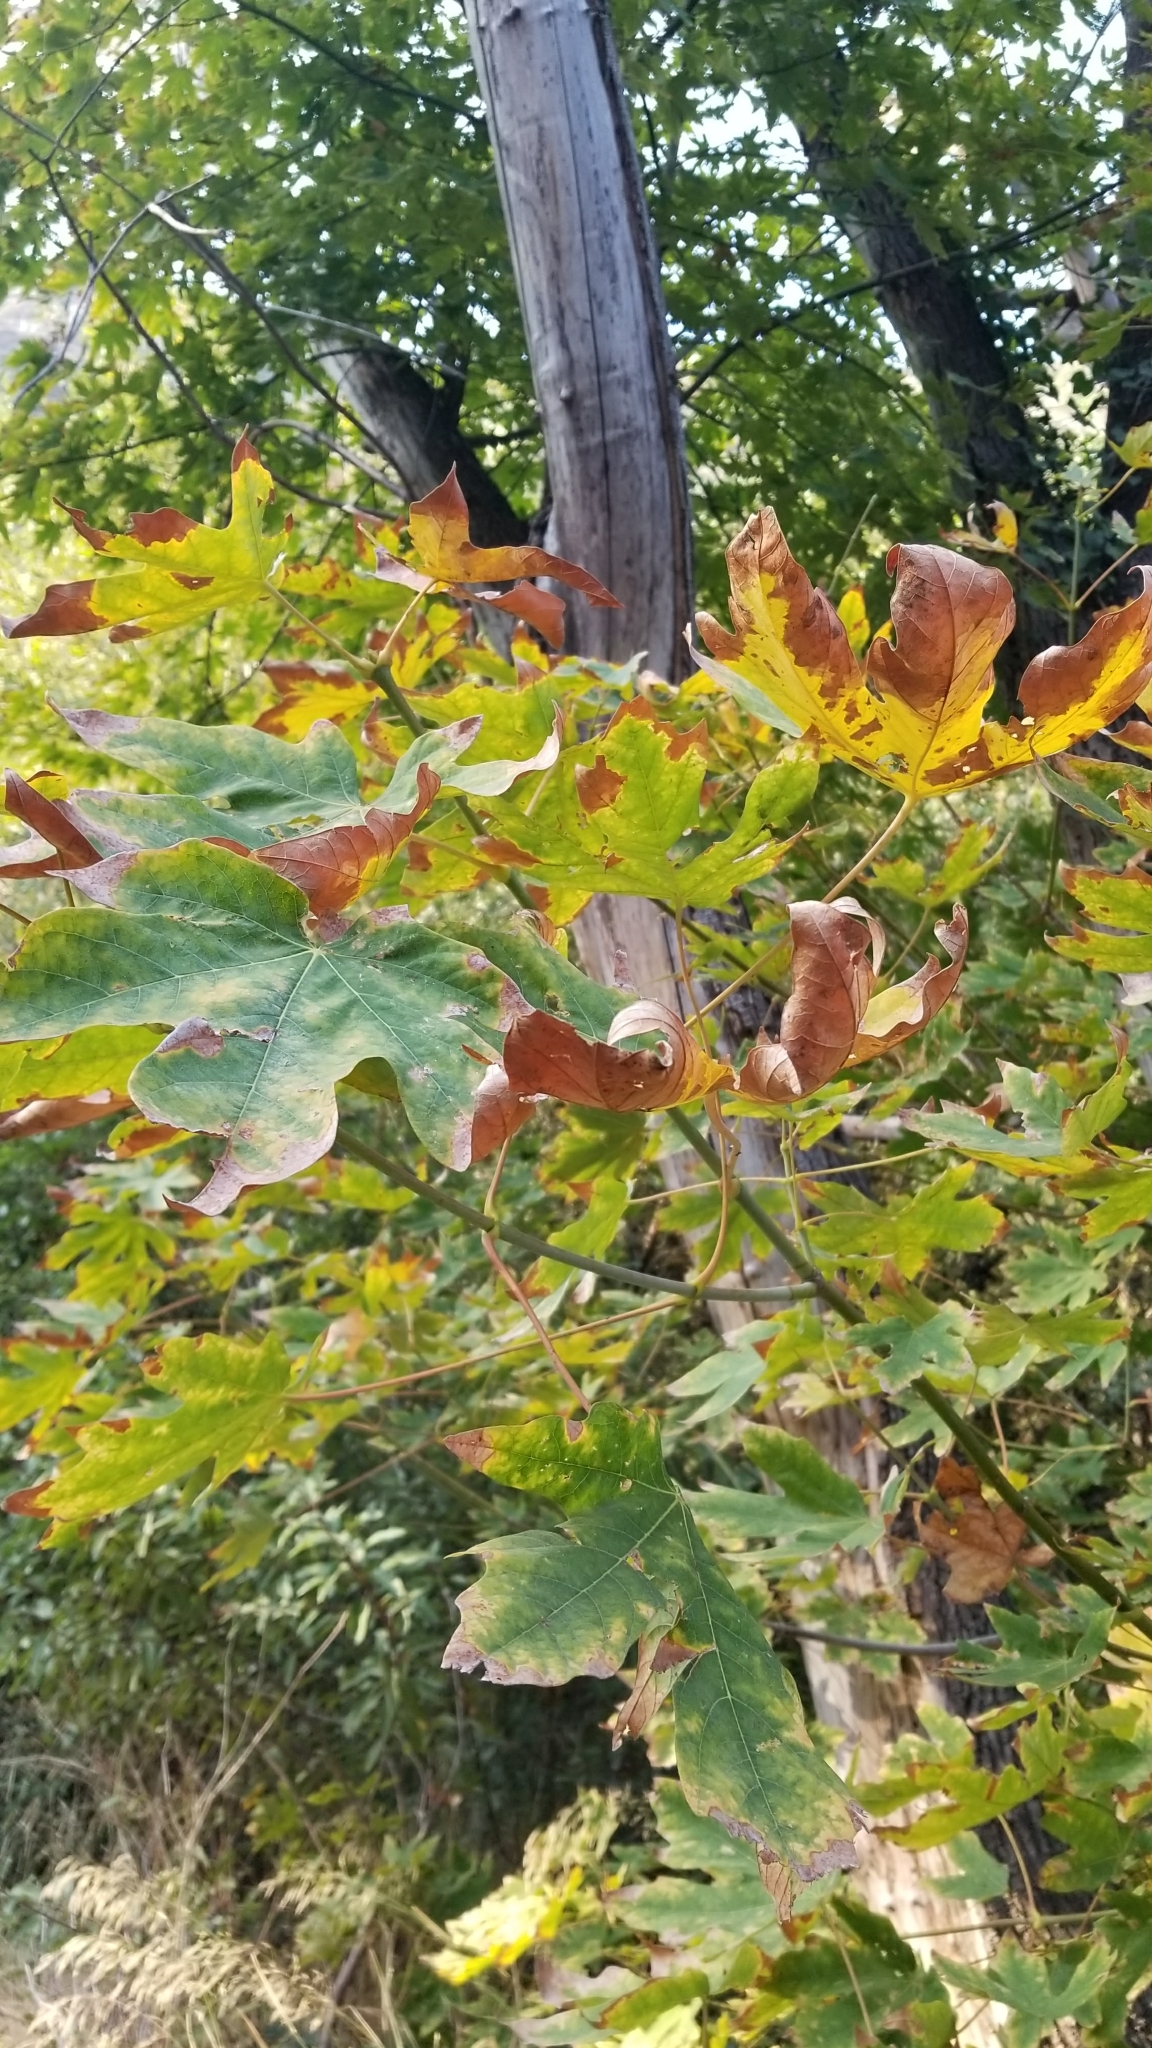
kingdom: Plantae
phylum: Tracheophyta
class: Magnoliopsida
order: Proteales
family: Platanaceae
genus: Platanus
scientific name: Platanus racemosa
